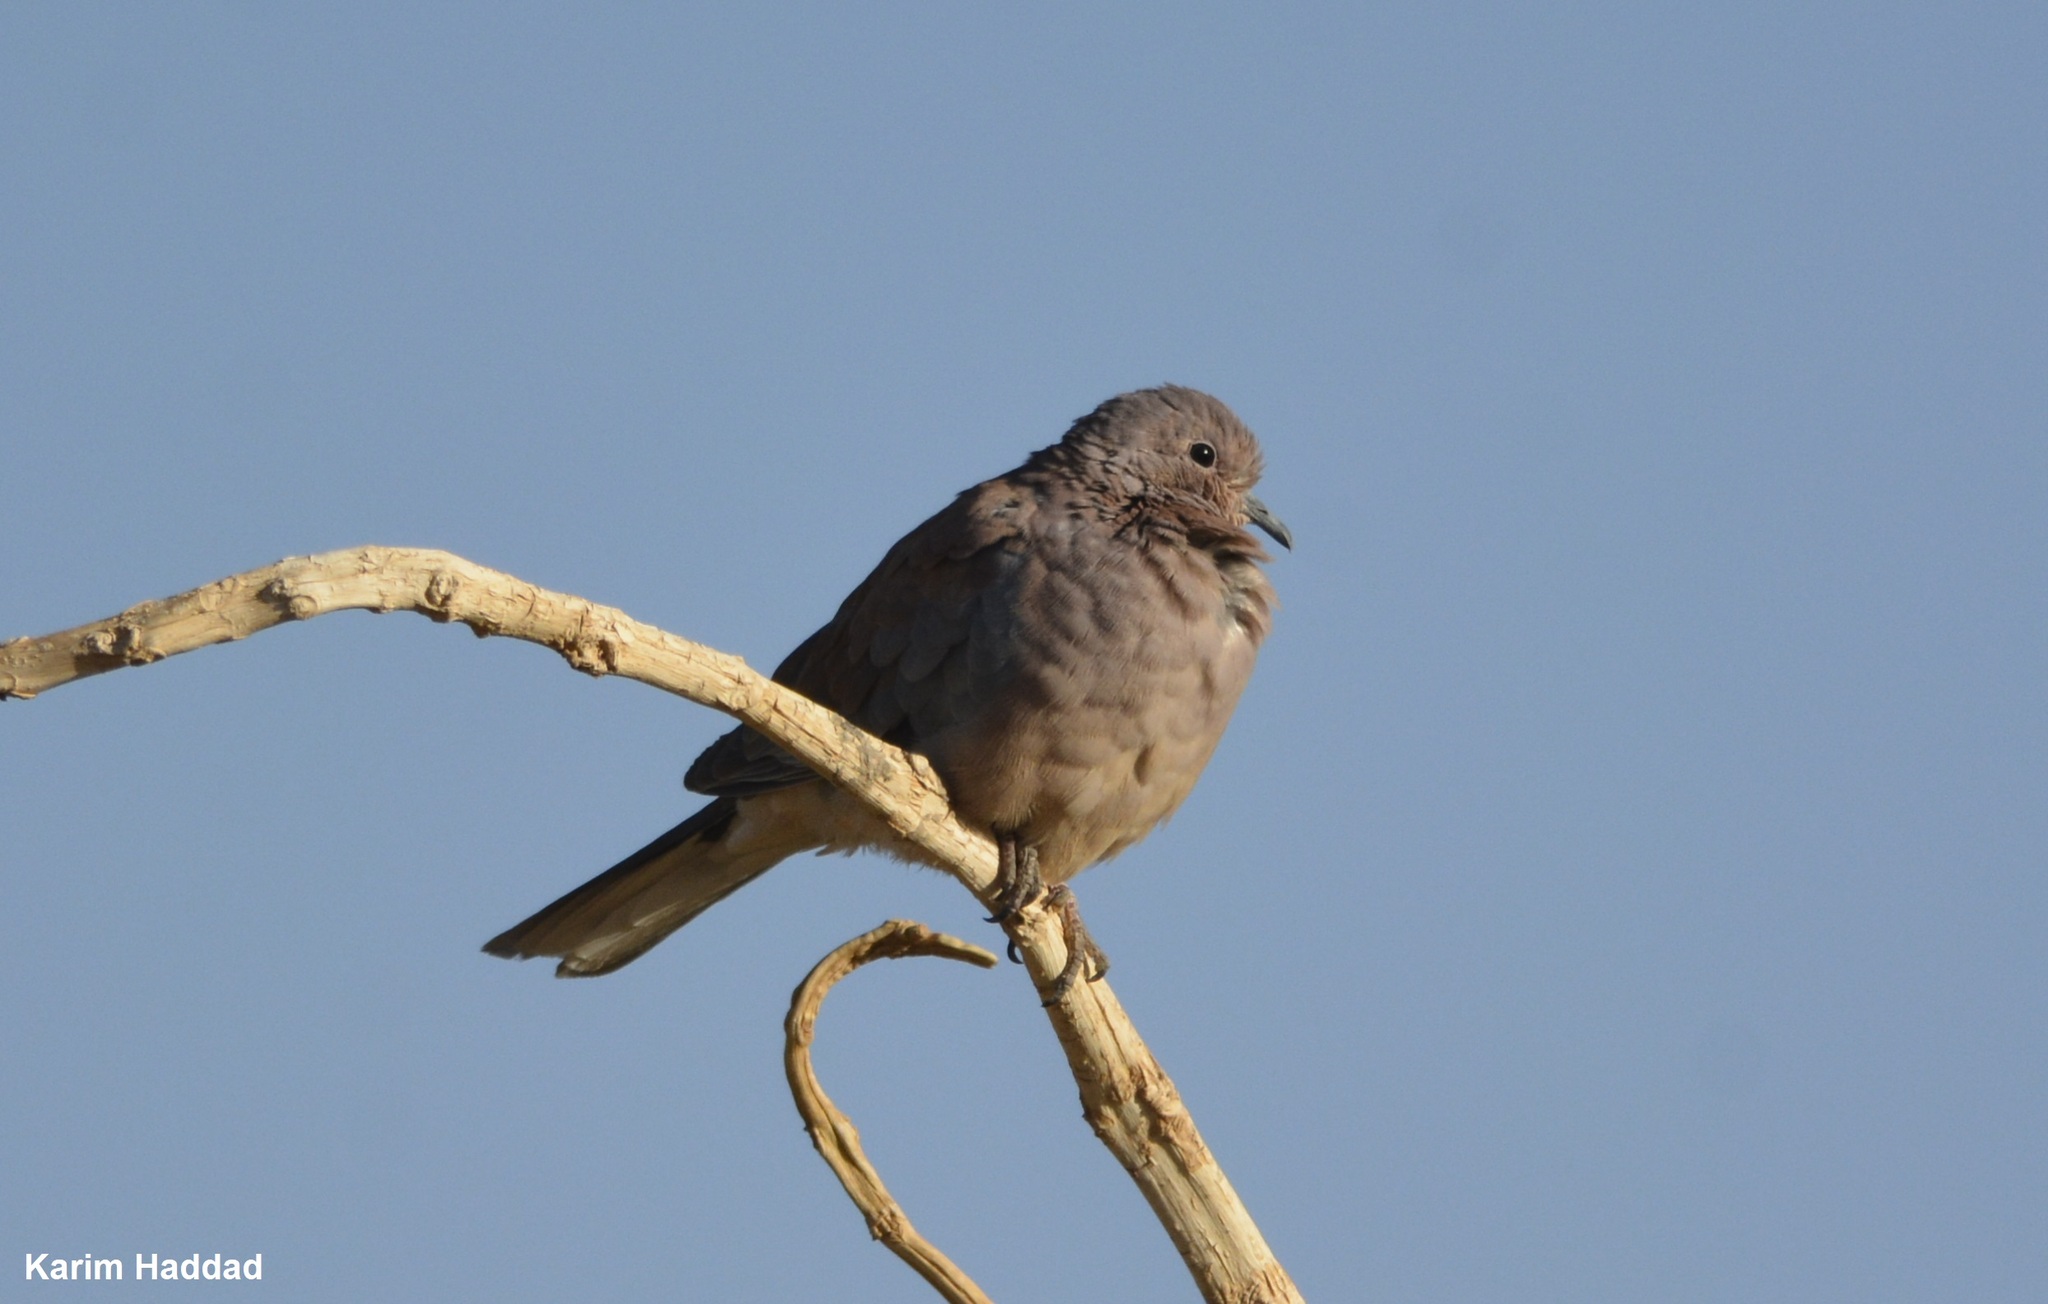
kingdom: Animalia
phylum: Chordata
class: Aves
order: Columbiformes
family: Columbidae
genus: Spilopelia
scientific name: Spilopelia senegalensis
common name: Laughing dove
